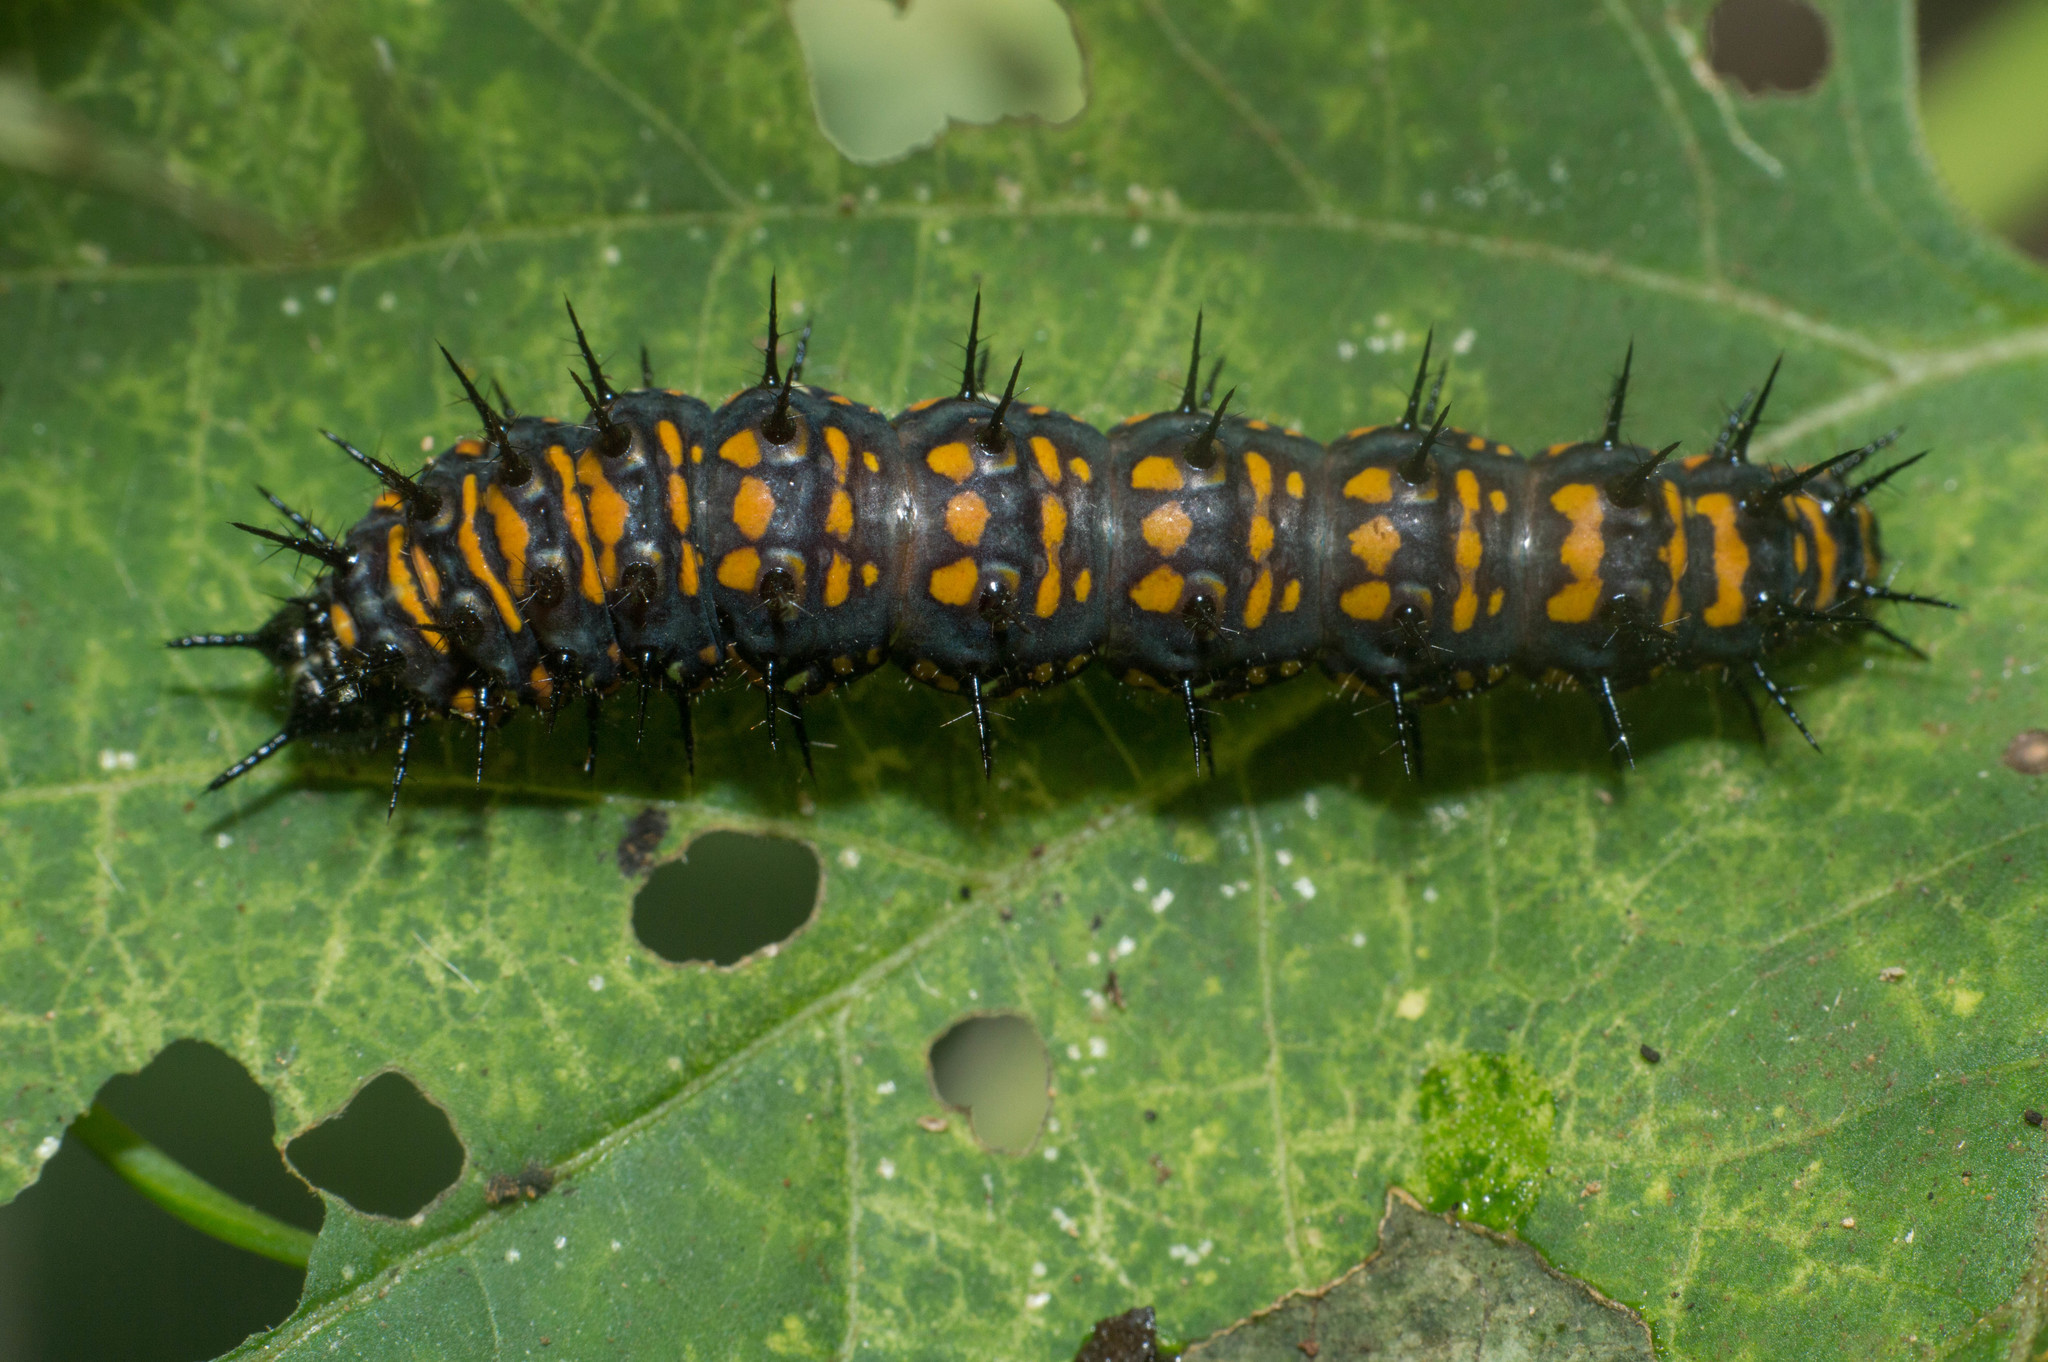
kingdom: Animalia
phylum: Arthropoda
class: Insecta
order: Lepidoptera
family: Nymphalidae
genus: Dione
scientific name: Dione moneta
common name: Mexican silverspot
